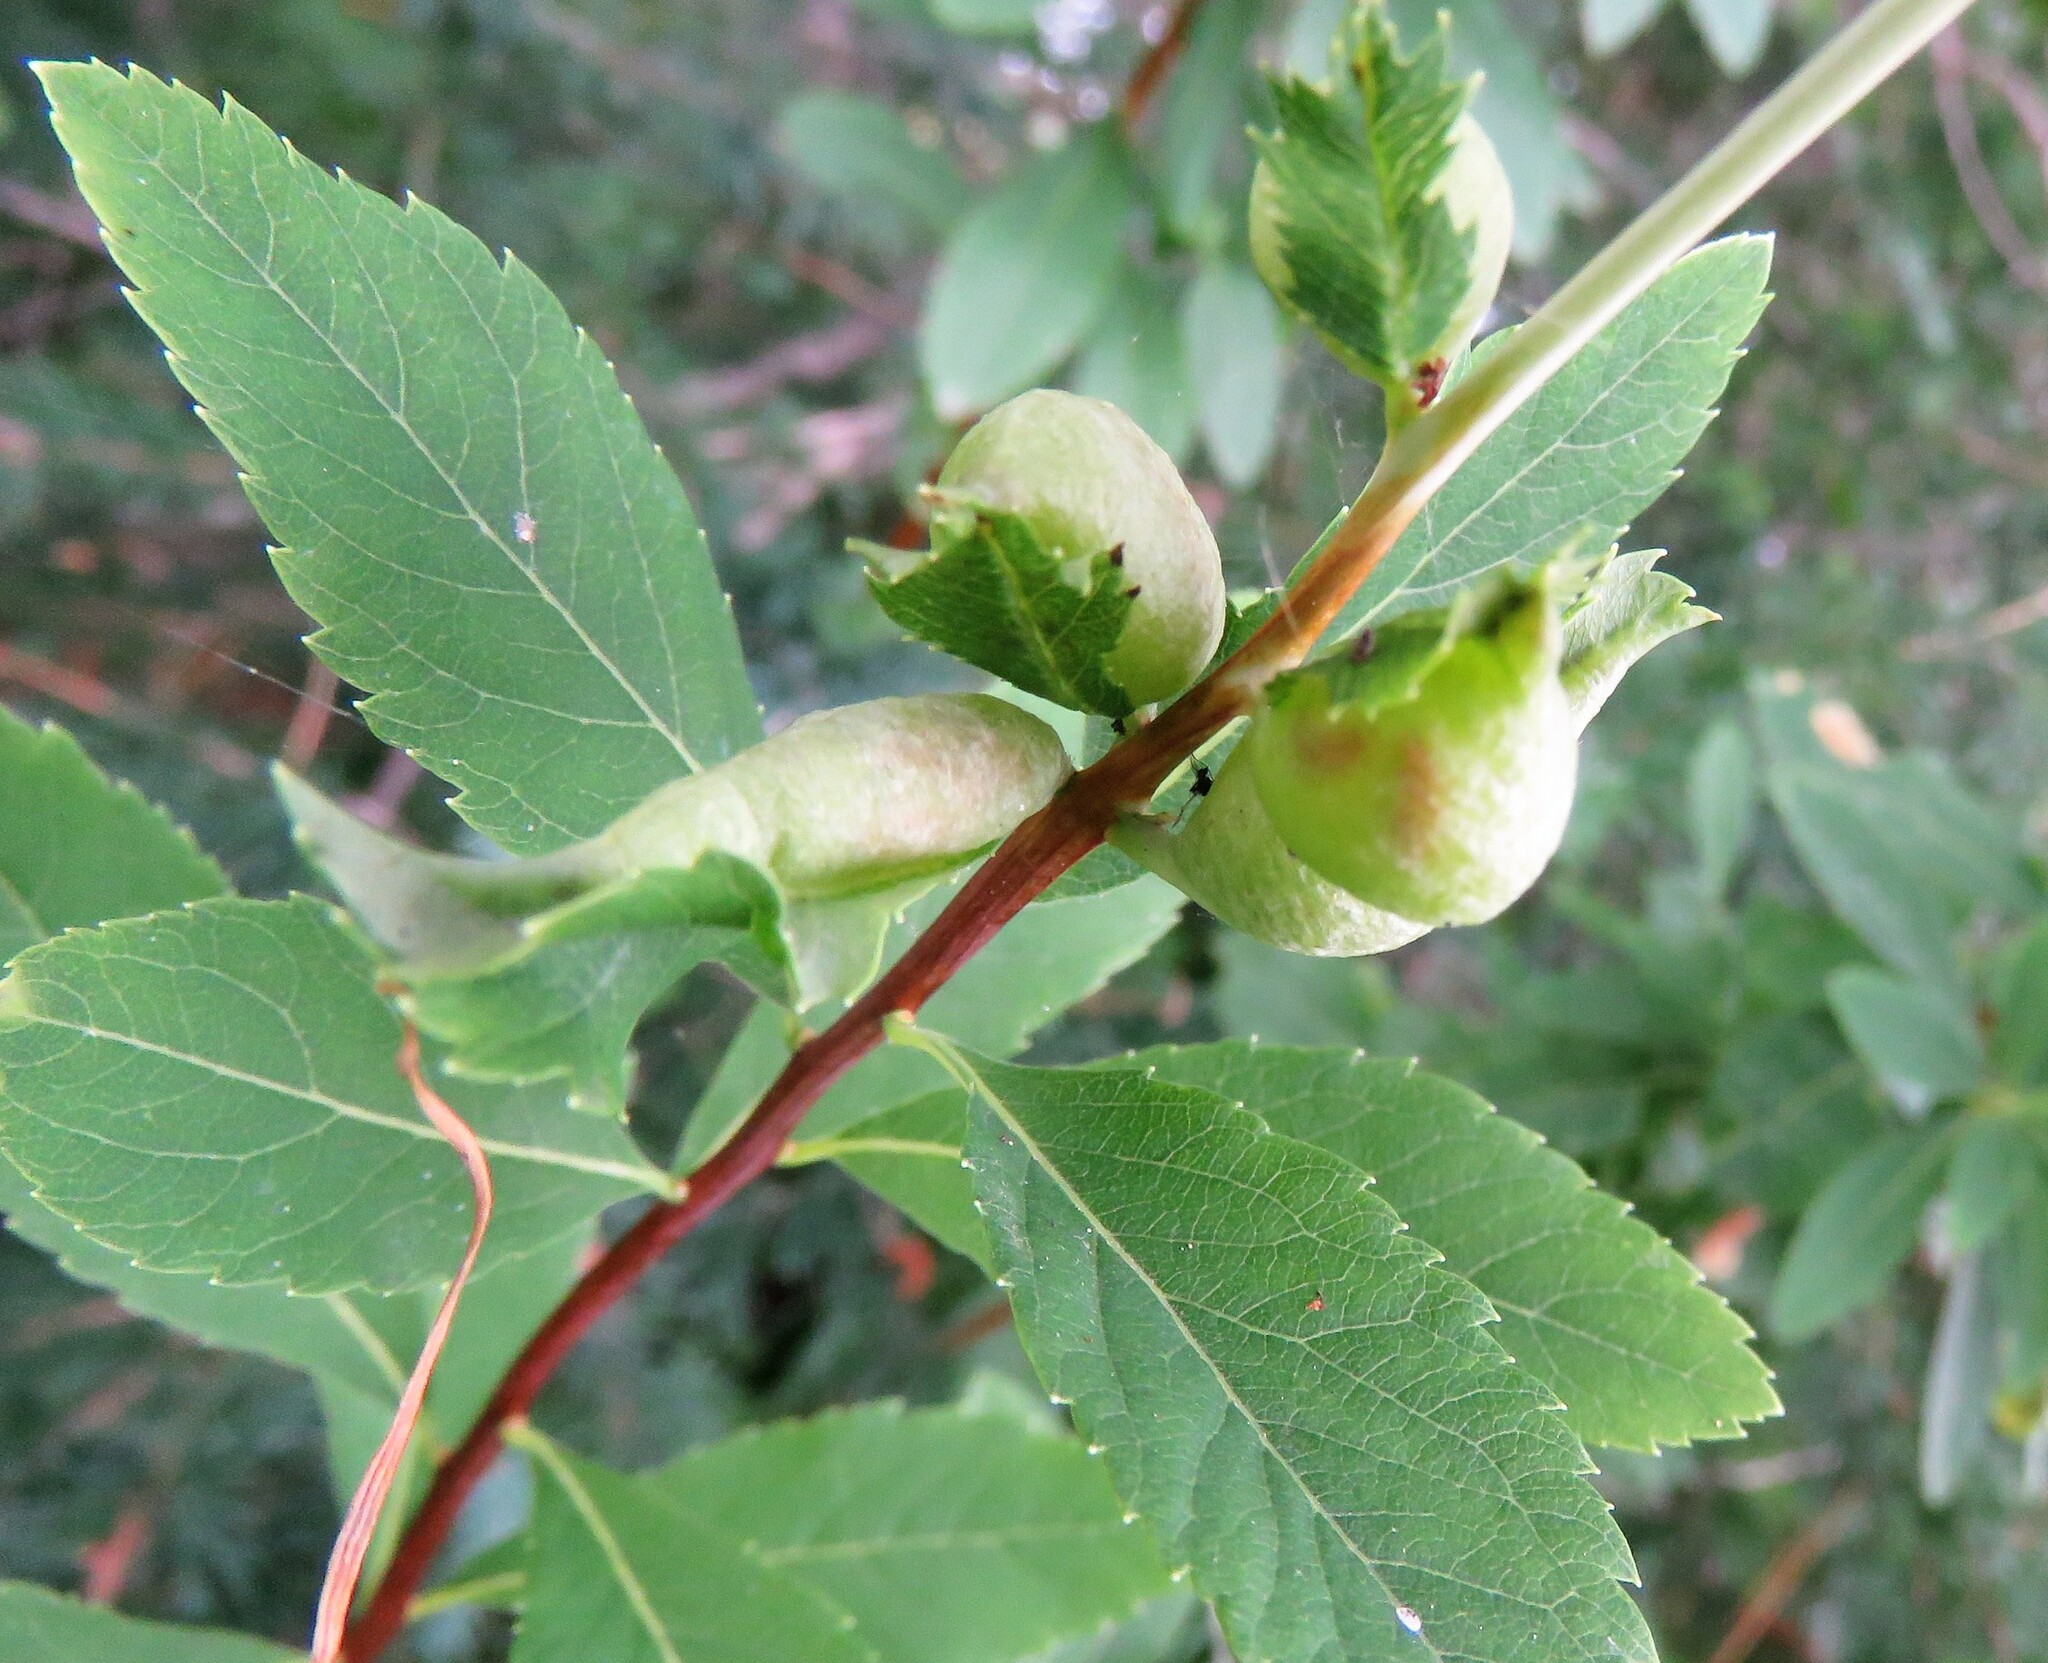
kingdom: Animalia
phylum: Arthropoda
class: Insecta
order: Diptera
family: Cecidomyiidae
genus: Dasineura
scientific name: Dasineura salicifoliae
